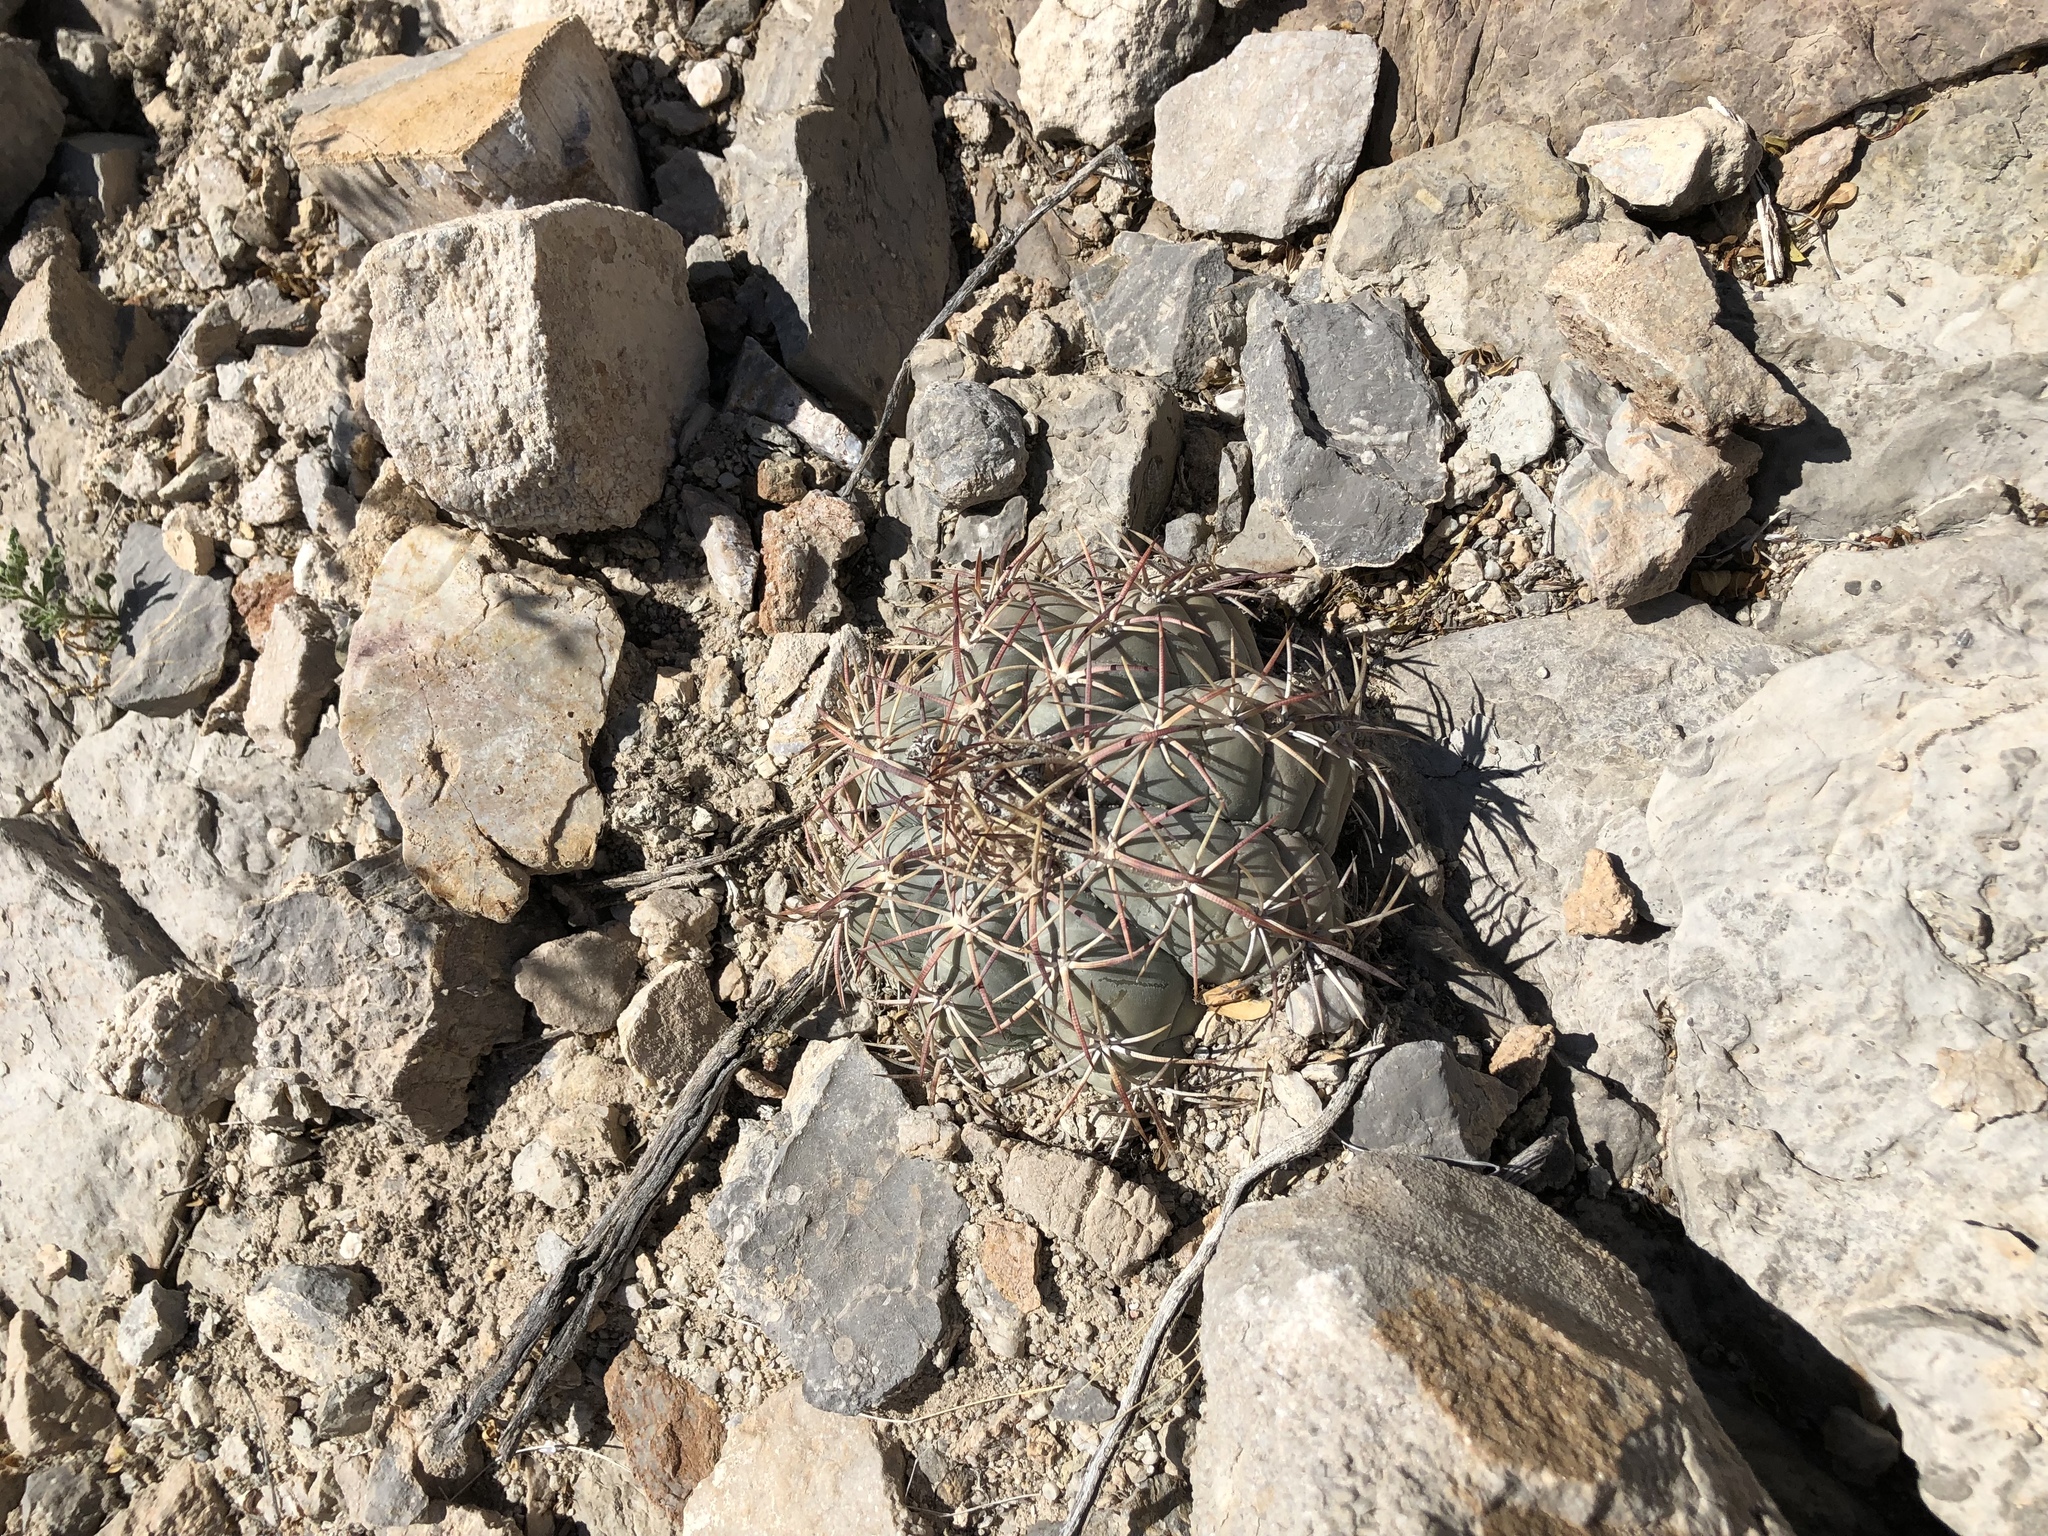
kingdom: Plantae
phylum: Tracheophyta
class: Magnoliopsida
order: Caryophyllales
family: Cactaceae
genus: Echinocactus
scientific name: Echinocactus horizonthalonius
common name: Devilshead
